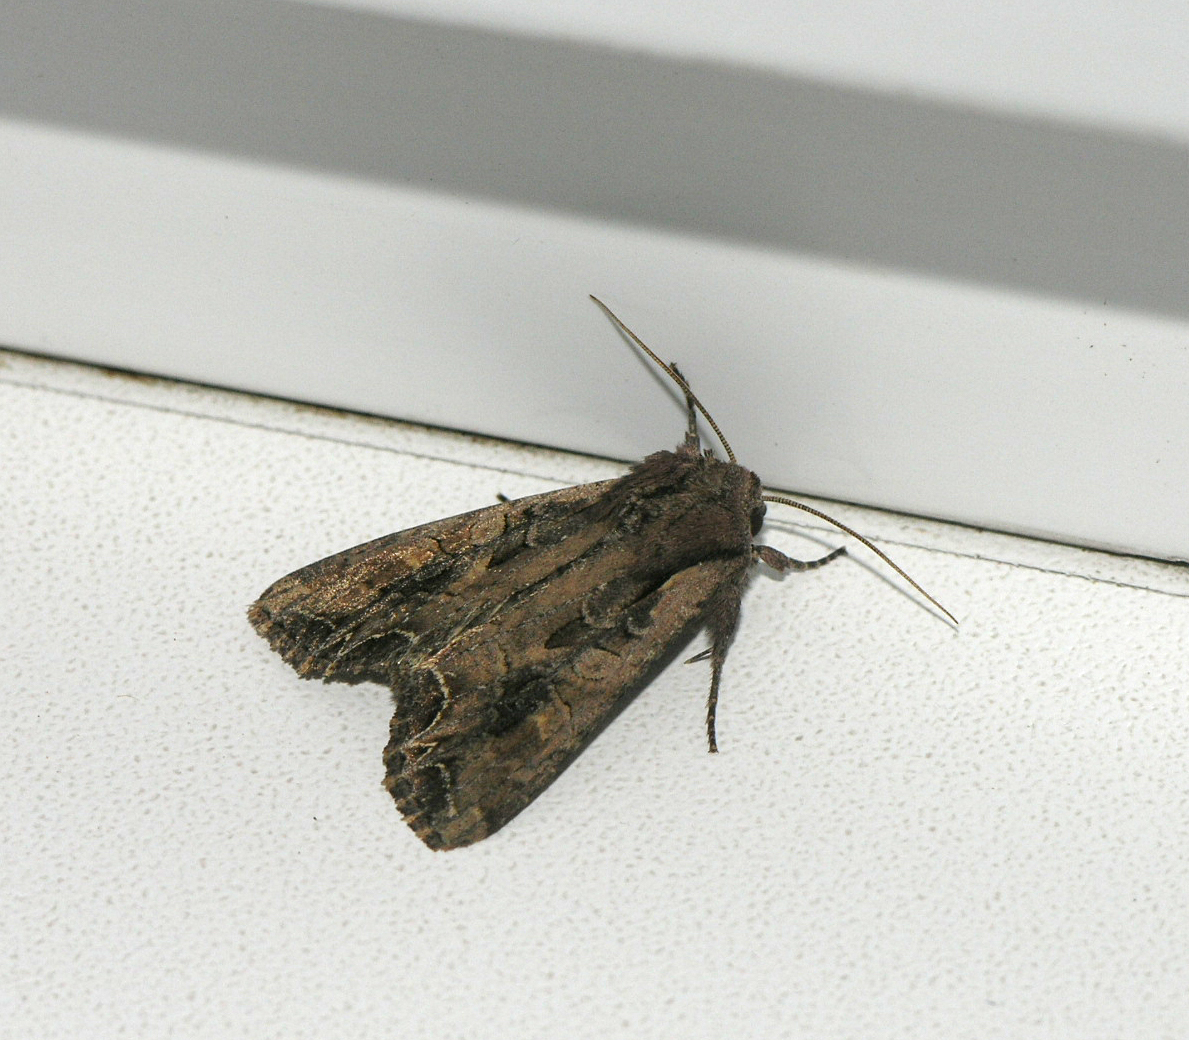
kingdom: Animalia
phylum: Arthropoda
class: Insecta
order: Lepidoptera
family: Noctuidae
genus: Lacanobia
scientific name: Lacanobia suasa
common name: Dog's tooth
